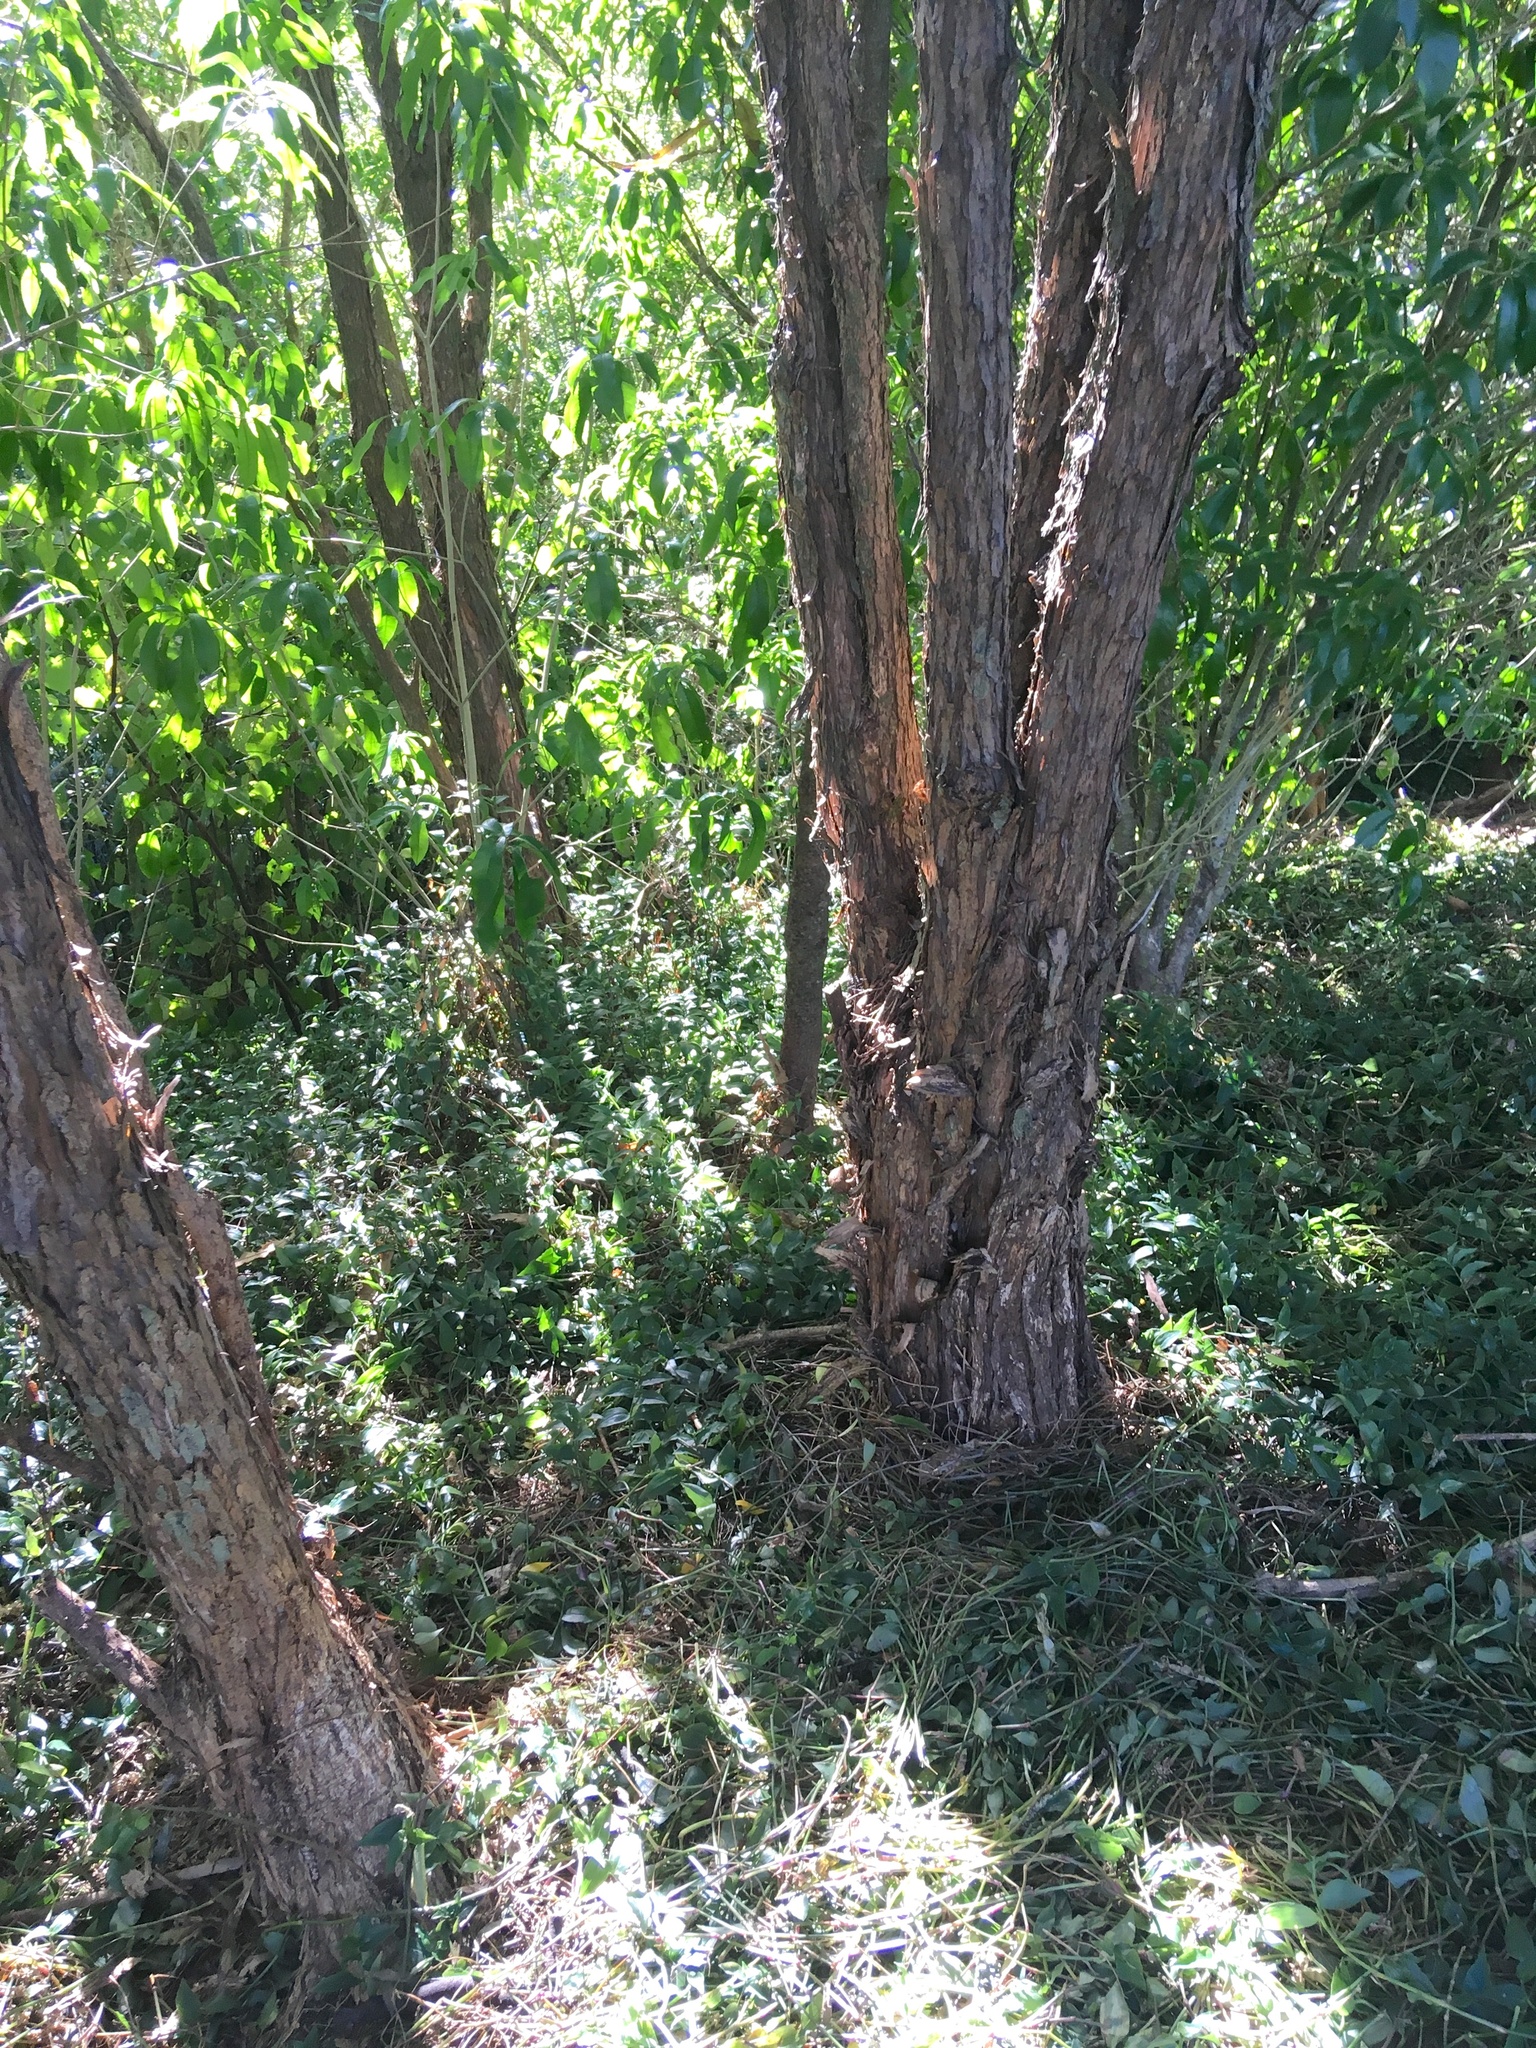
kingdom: Plantae
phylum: Tracheophyta
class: Magnoliopsida
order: Malpighiales
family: Violaceae
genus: Melicytus
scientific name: Melicytus ramiflorus
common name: Mahoe
